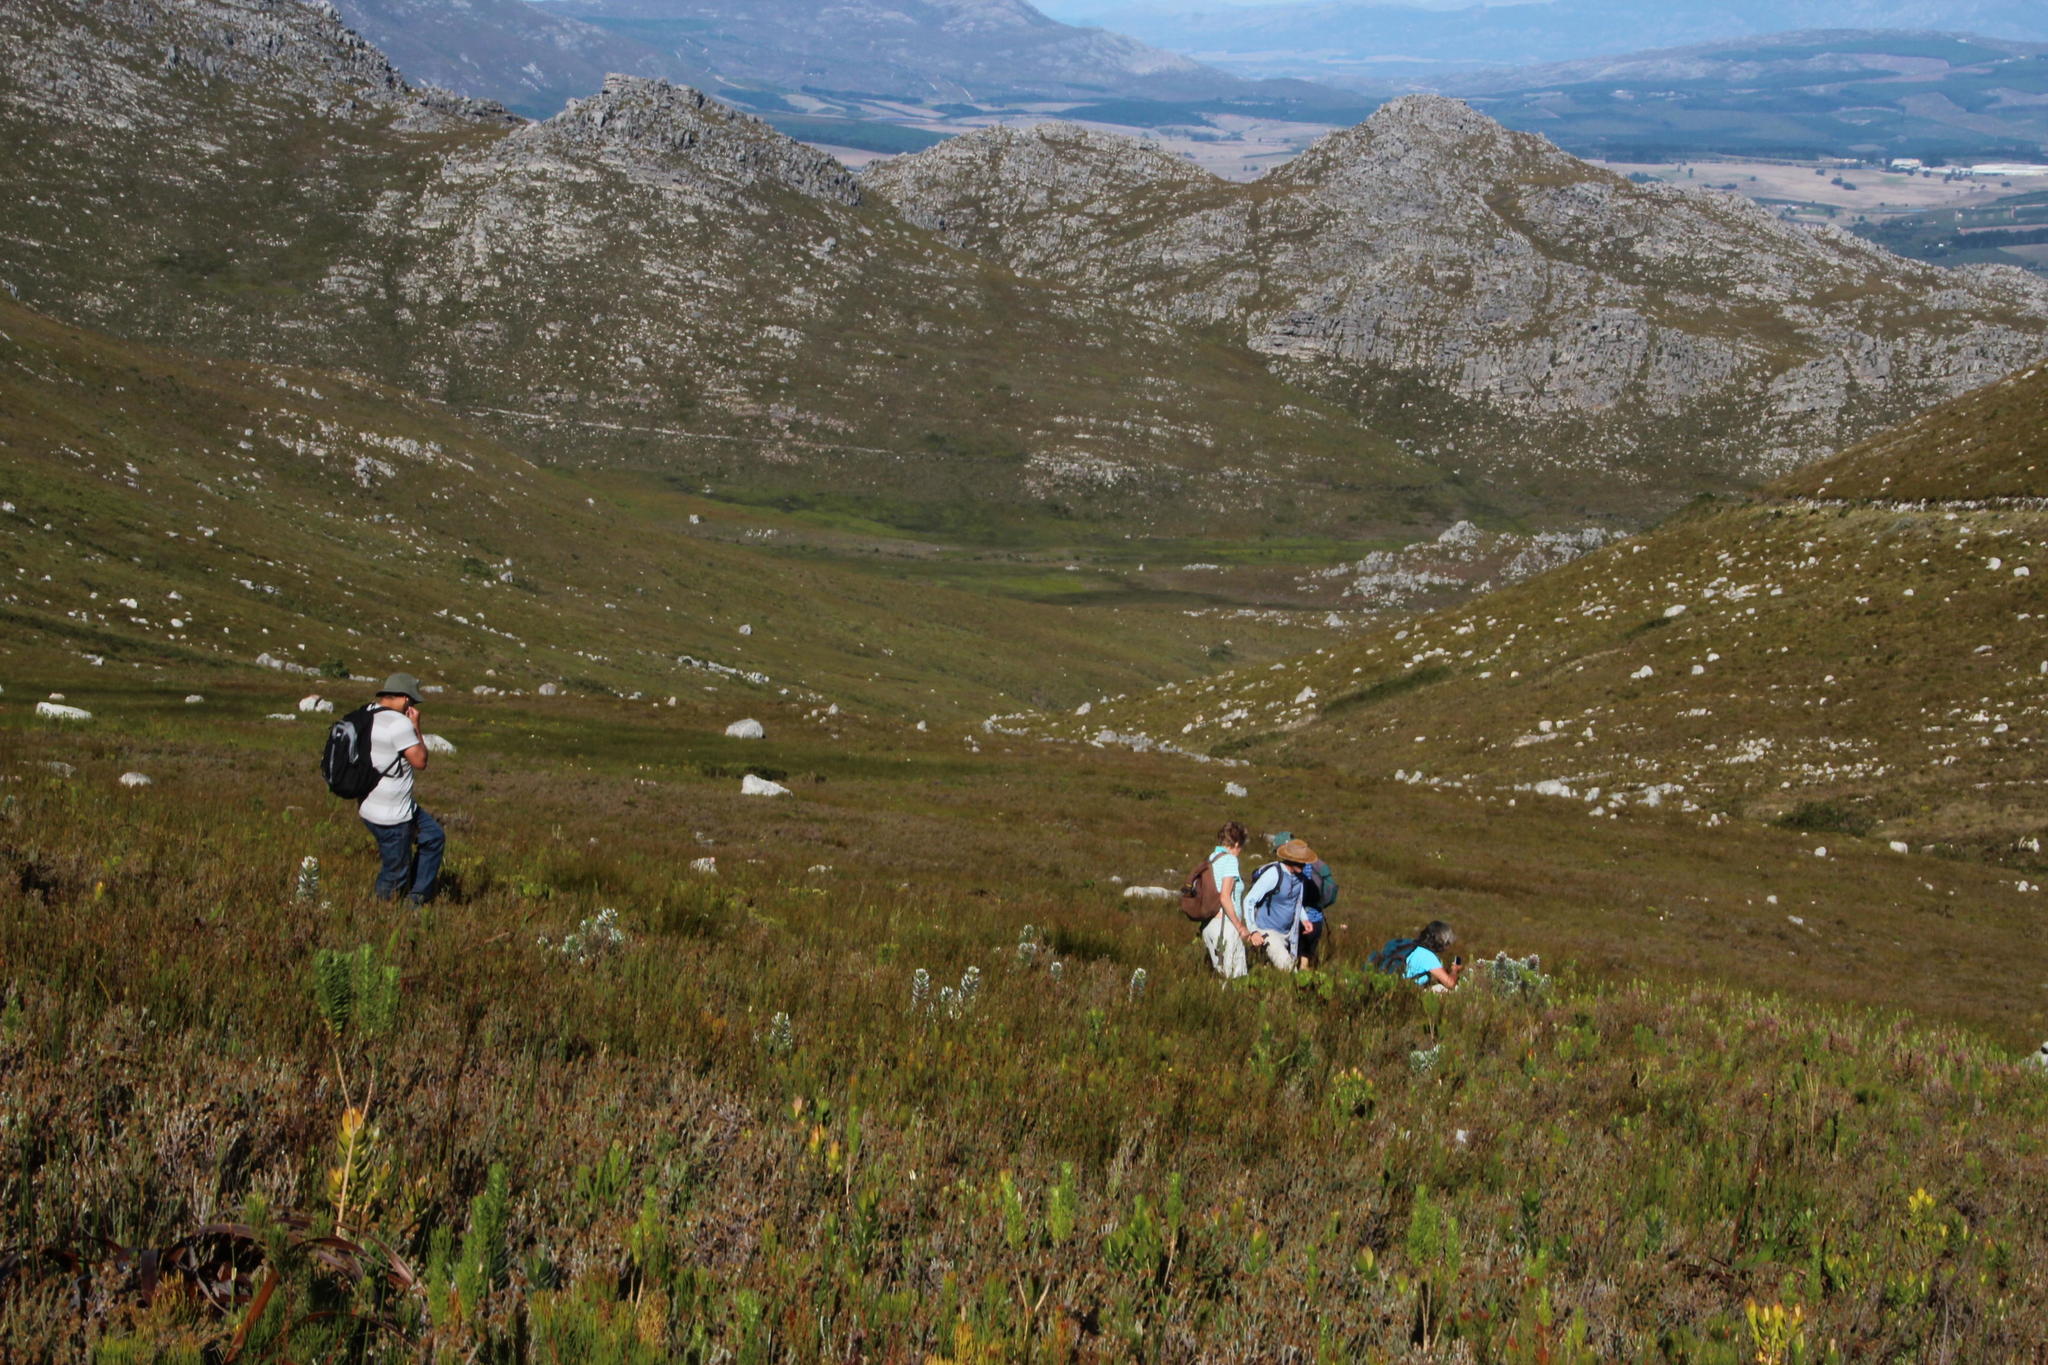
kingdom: Plantae
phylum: Tracheophyta
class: Magnoliopsida
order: Proteales
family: Proteaceae
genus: Mimetes
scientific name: Mimetes argenteus
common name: Silver pagoda
